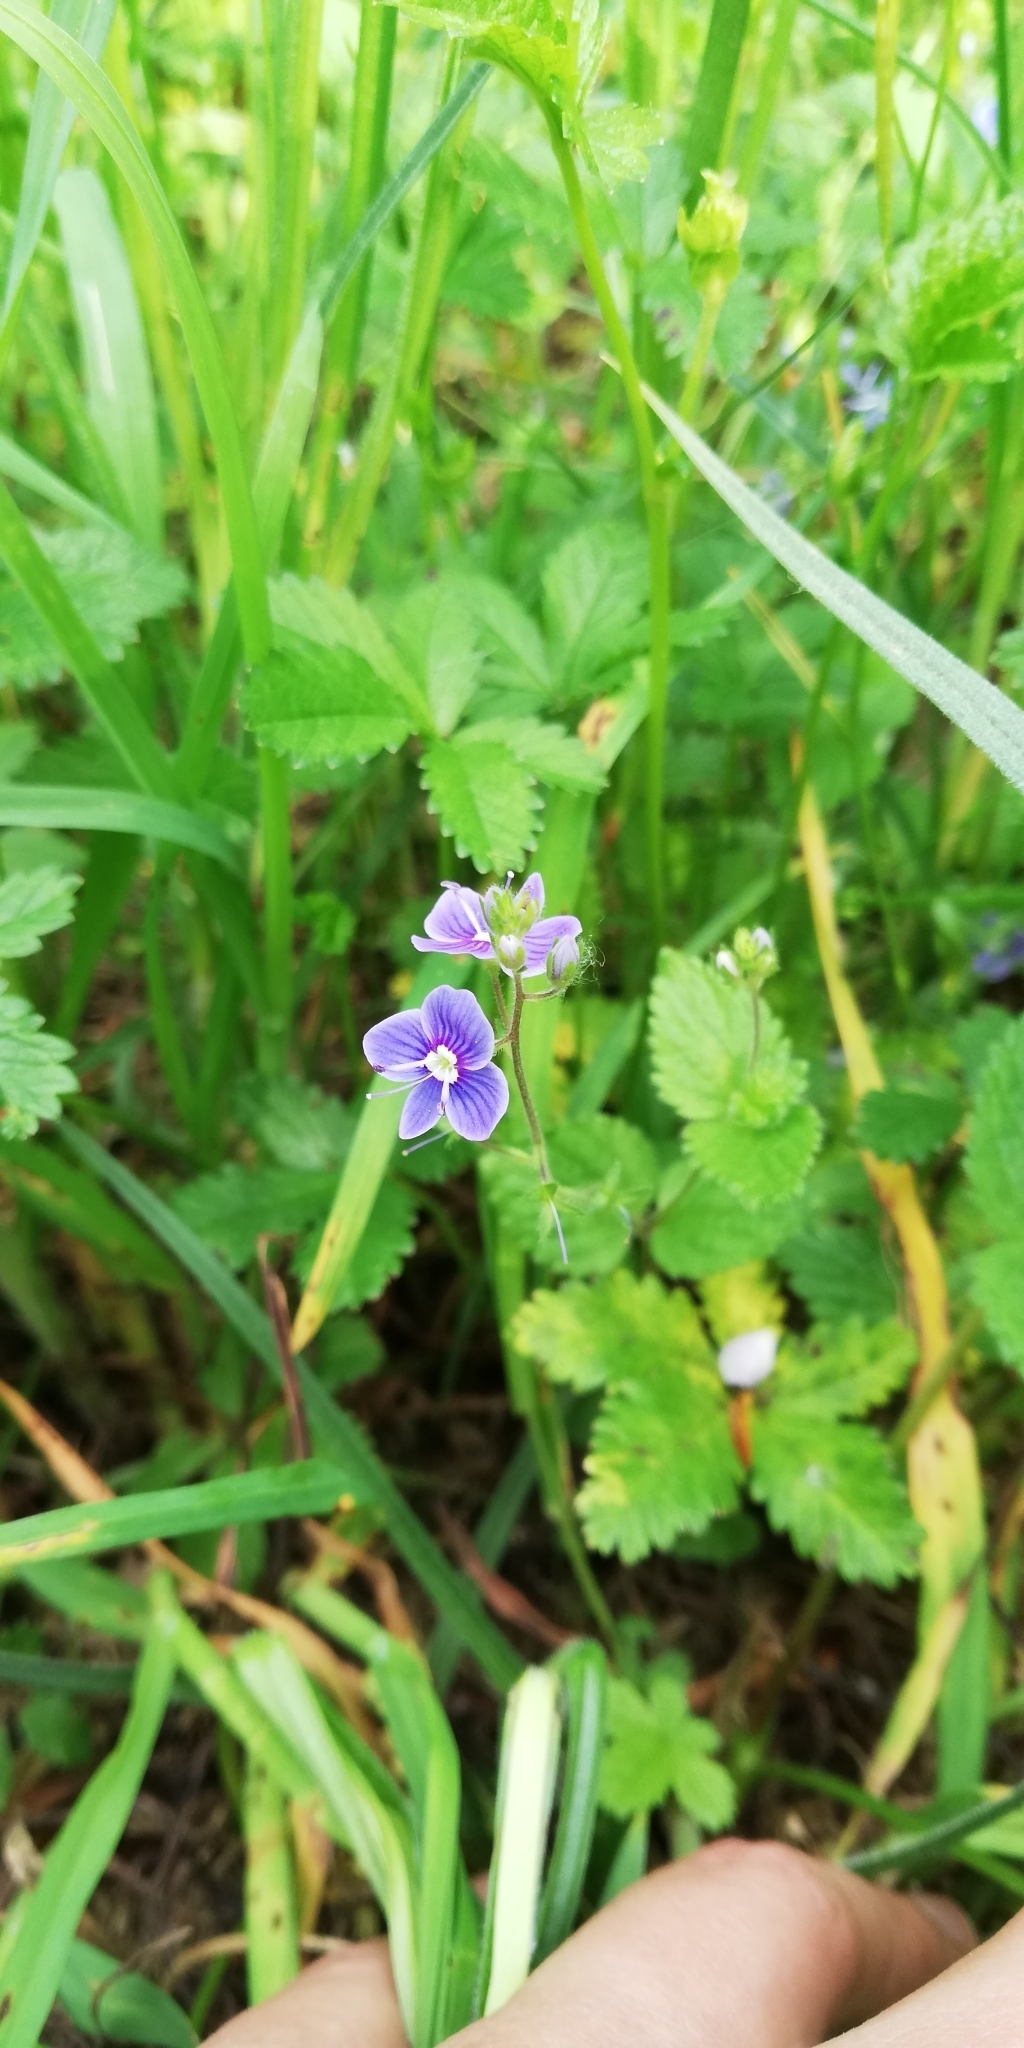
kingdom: Plantae
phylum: Tracheophyta
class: Magnoliopsida
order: Lamiales
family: Plantaginaceae
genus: Veronica
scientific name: Veronica chamaedrys
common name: Germander speedwell
